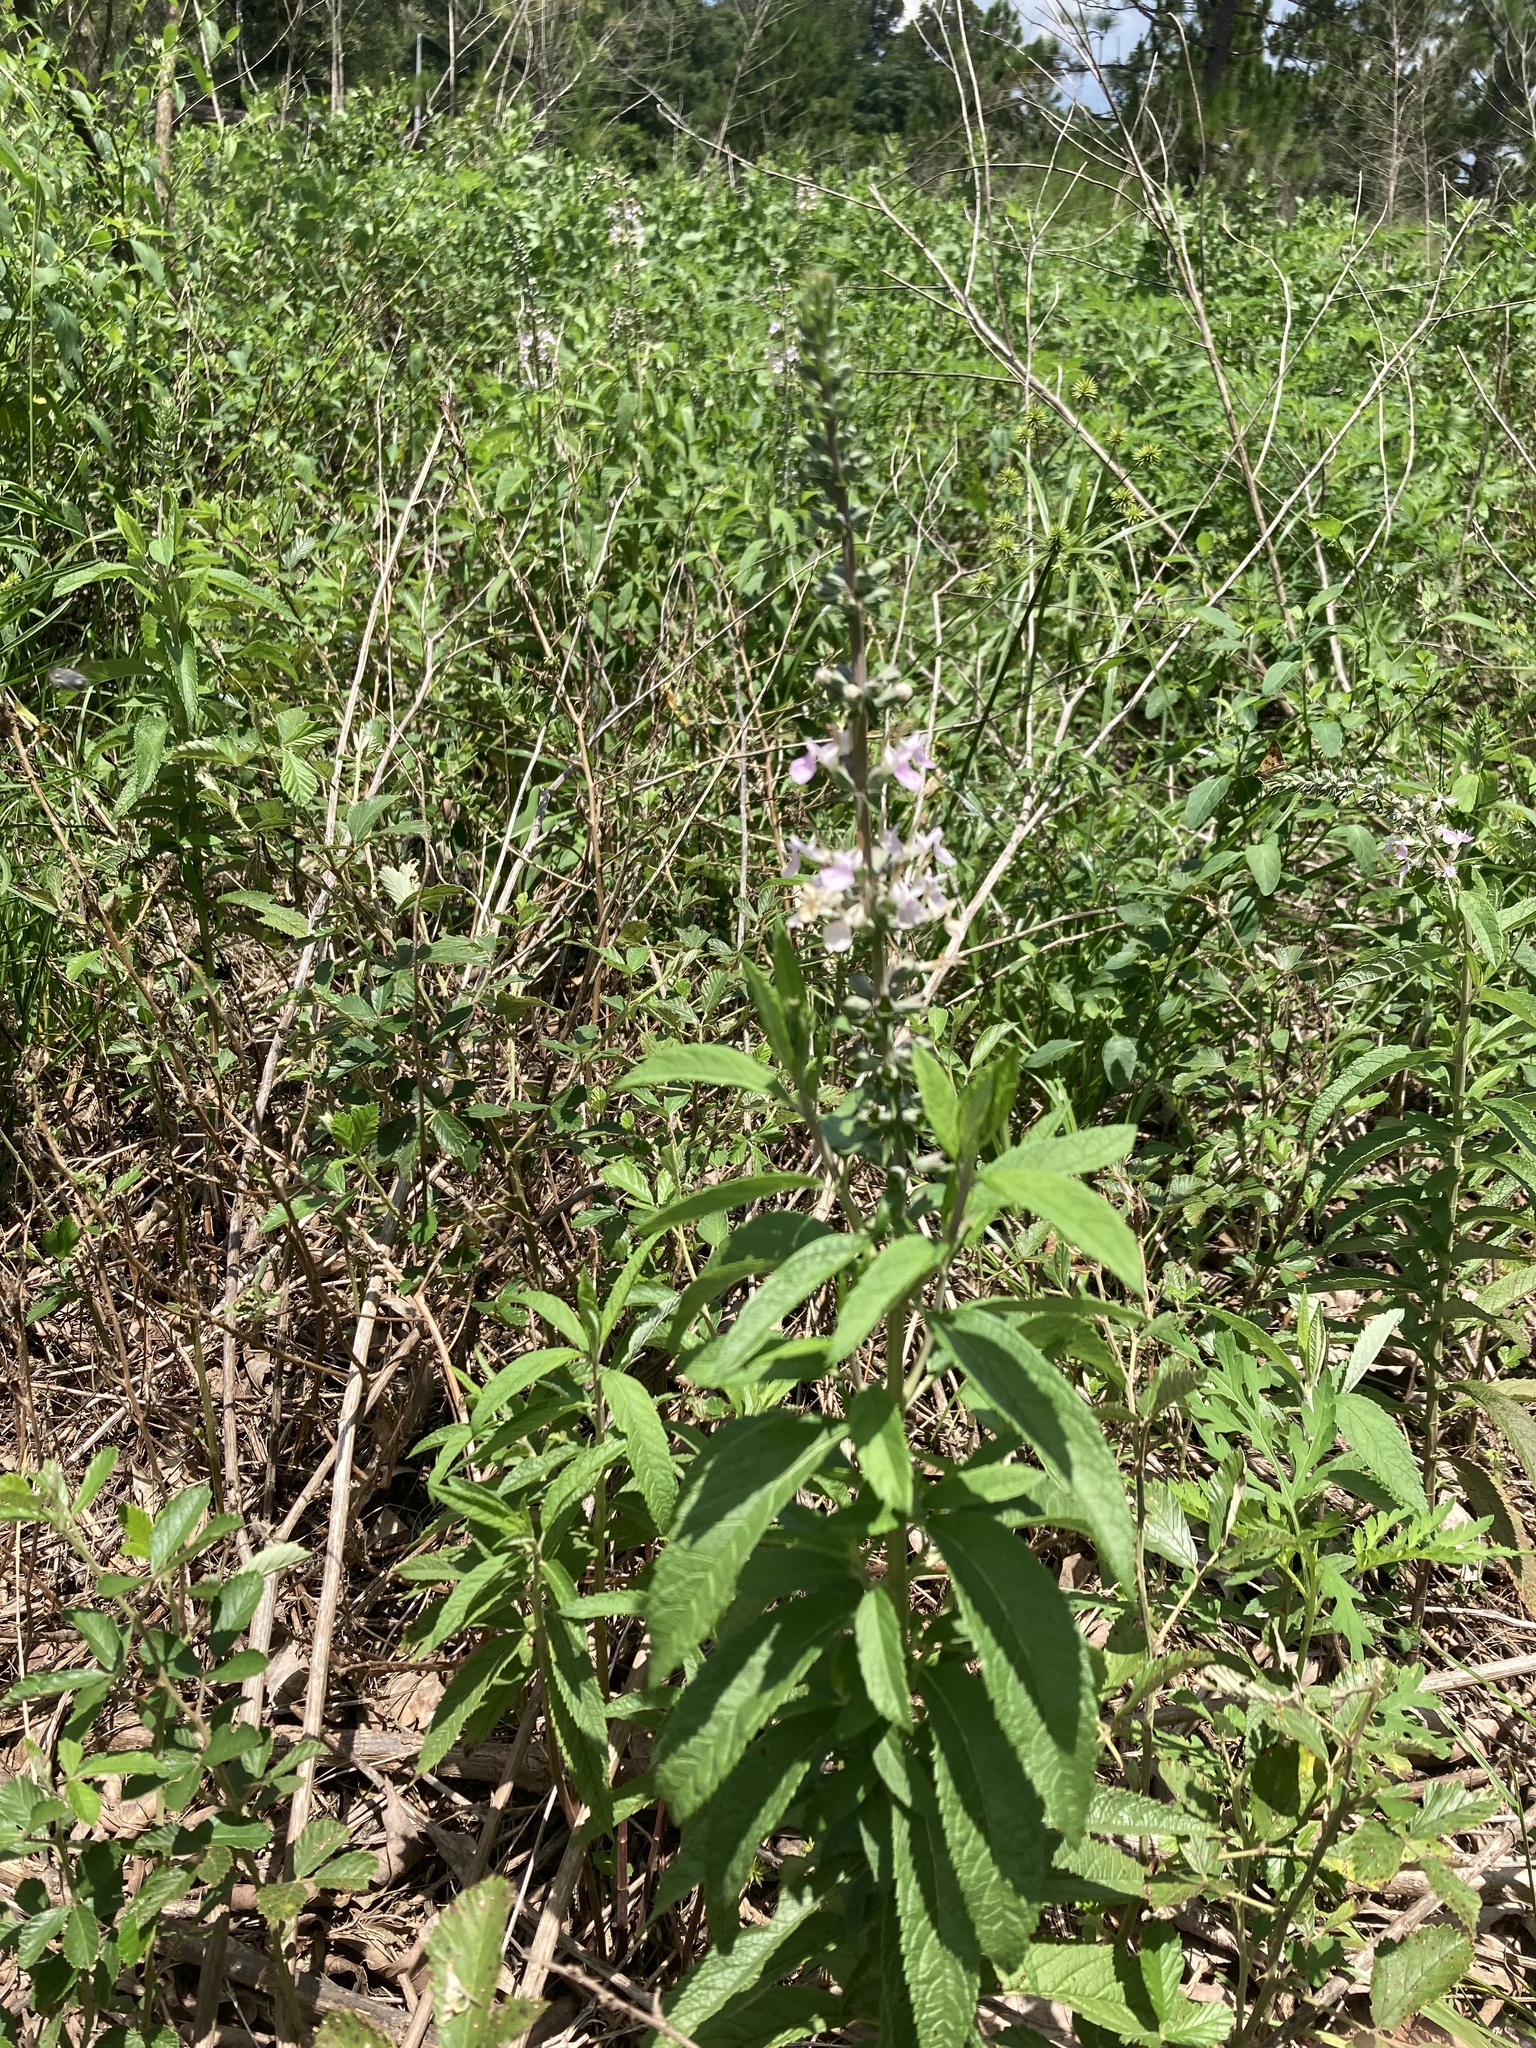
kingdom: Plantae
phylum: Tracheophyta
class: Magnoliopsida
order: Lamiales
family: Lamiaceae
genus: Teucrium
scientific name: Teucrium canadense
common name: American germander
